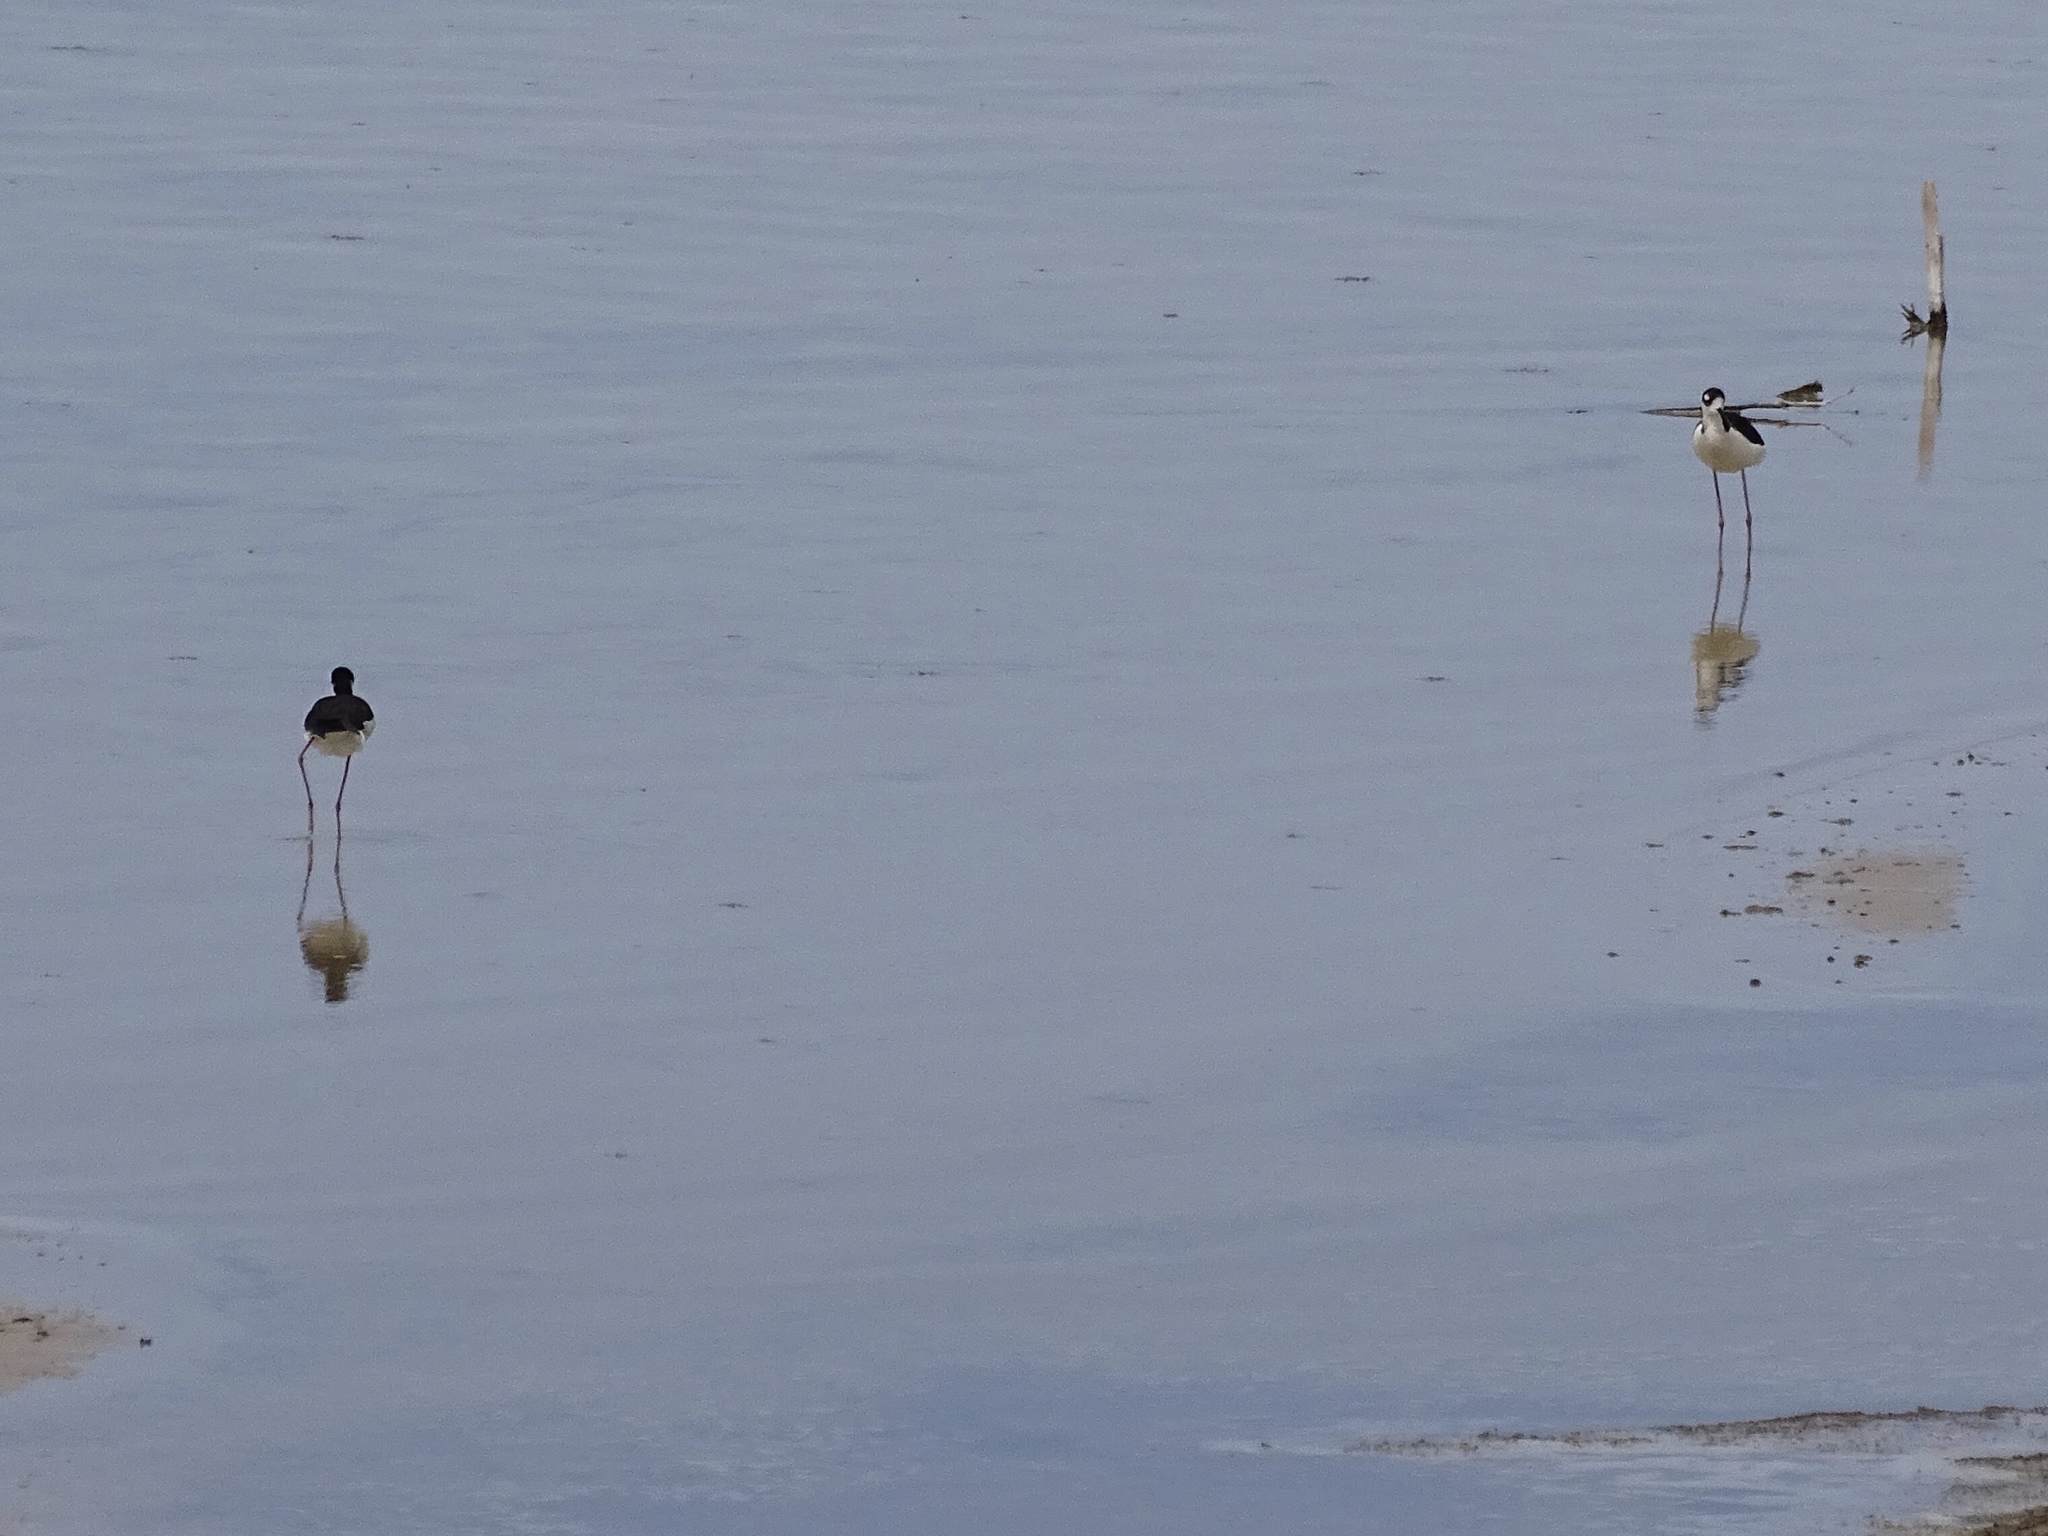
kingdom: Animalia
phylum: Chordata
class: Aves
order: Charadriiformes
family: Recurvirostridae
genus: Himantopus
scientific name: Himantopus mexicanus
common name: Black-necked stilt
